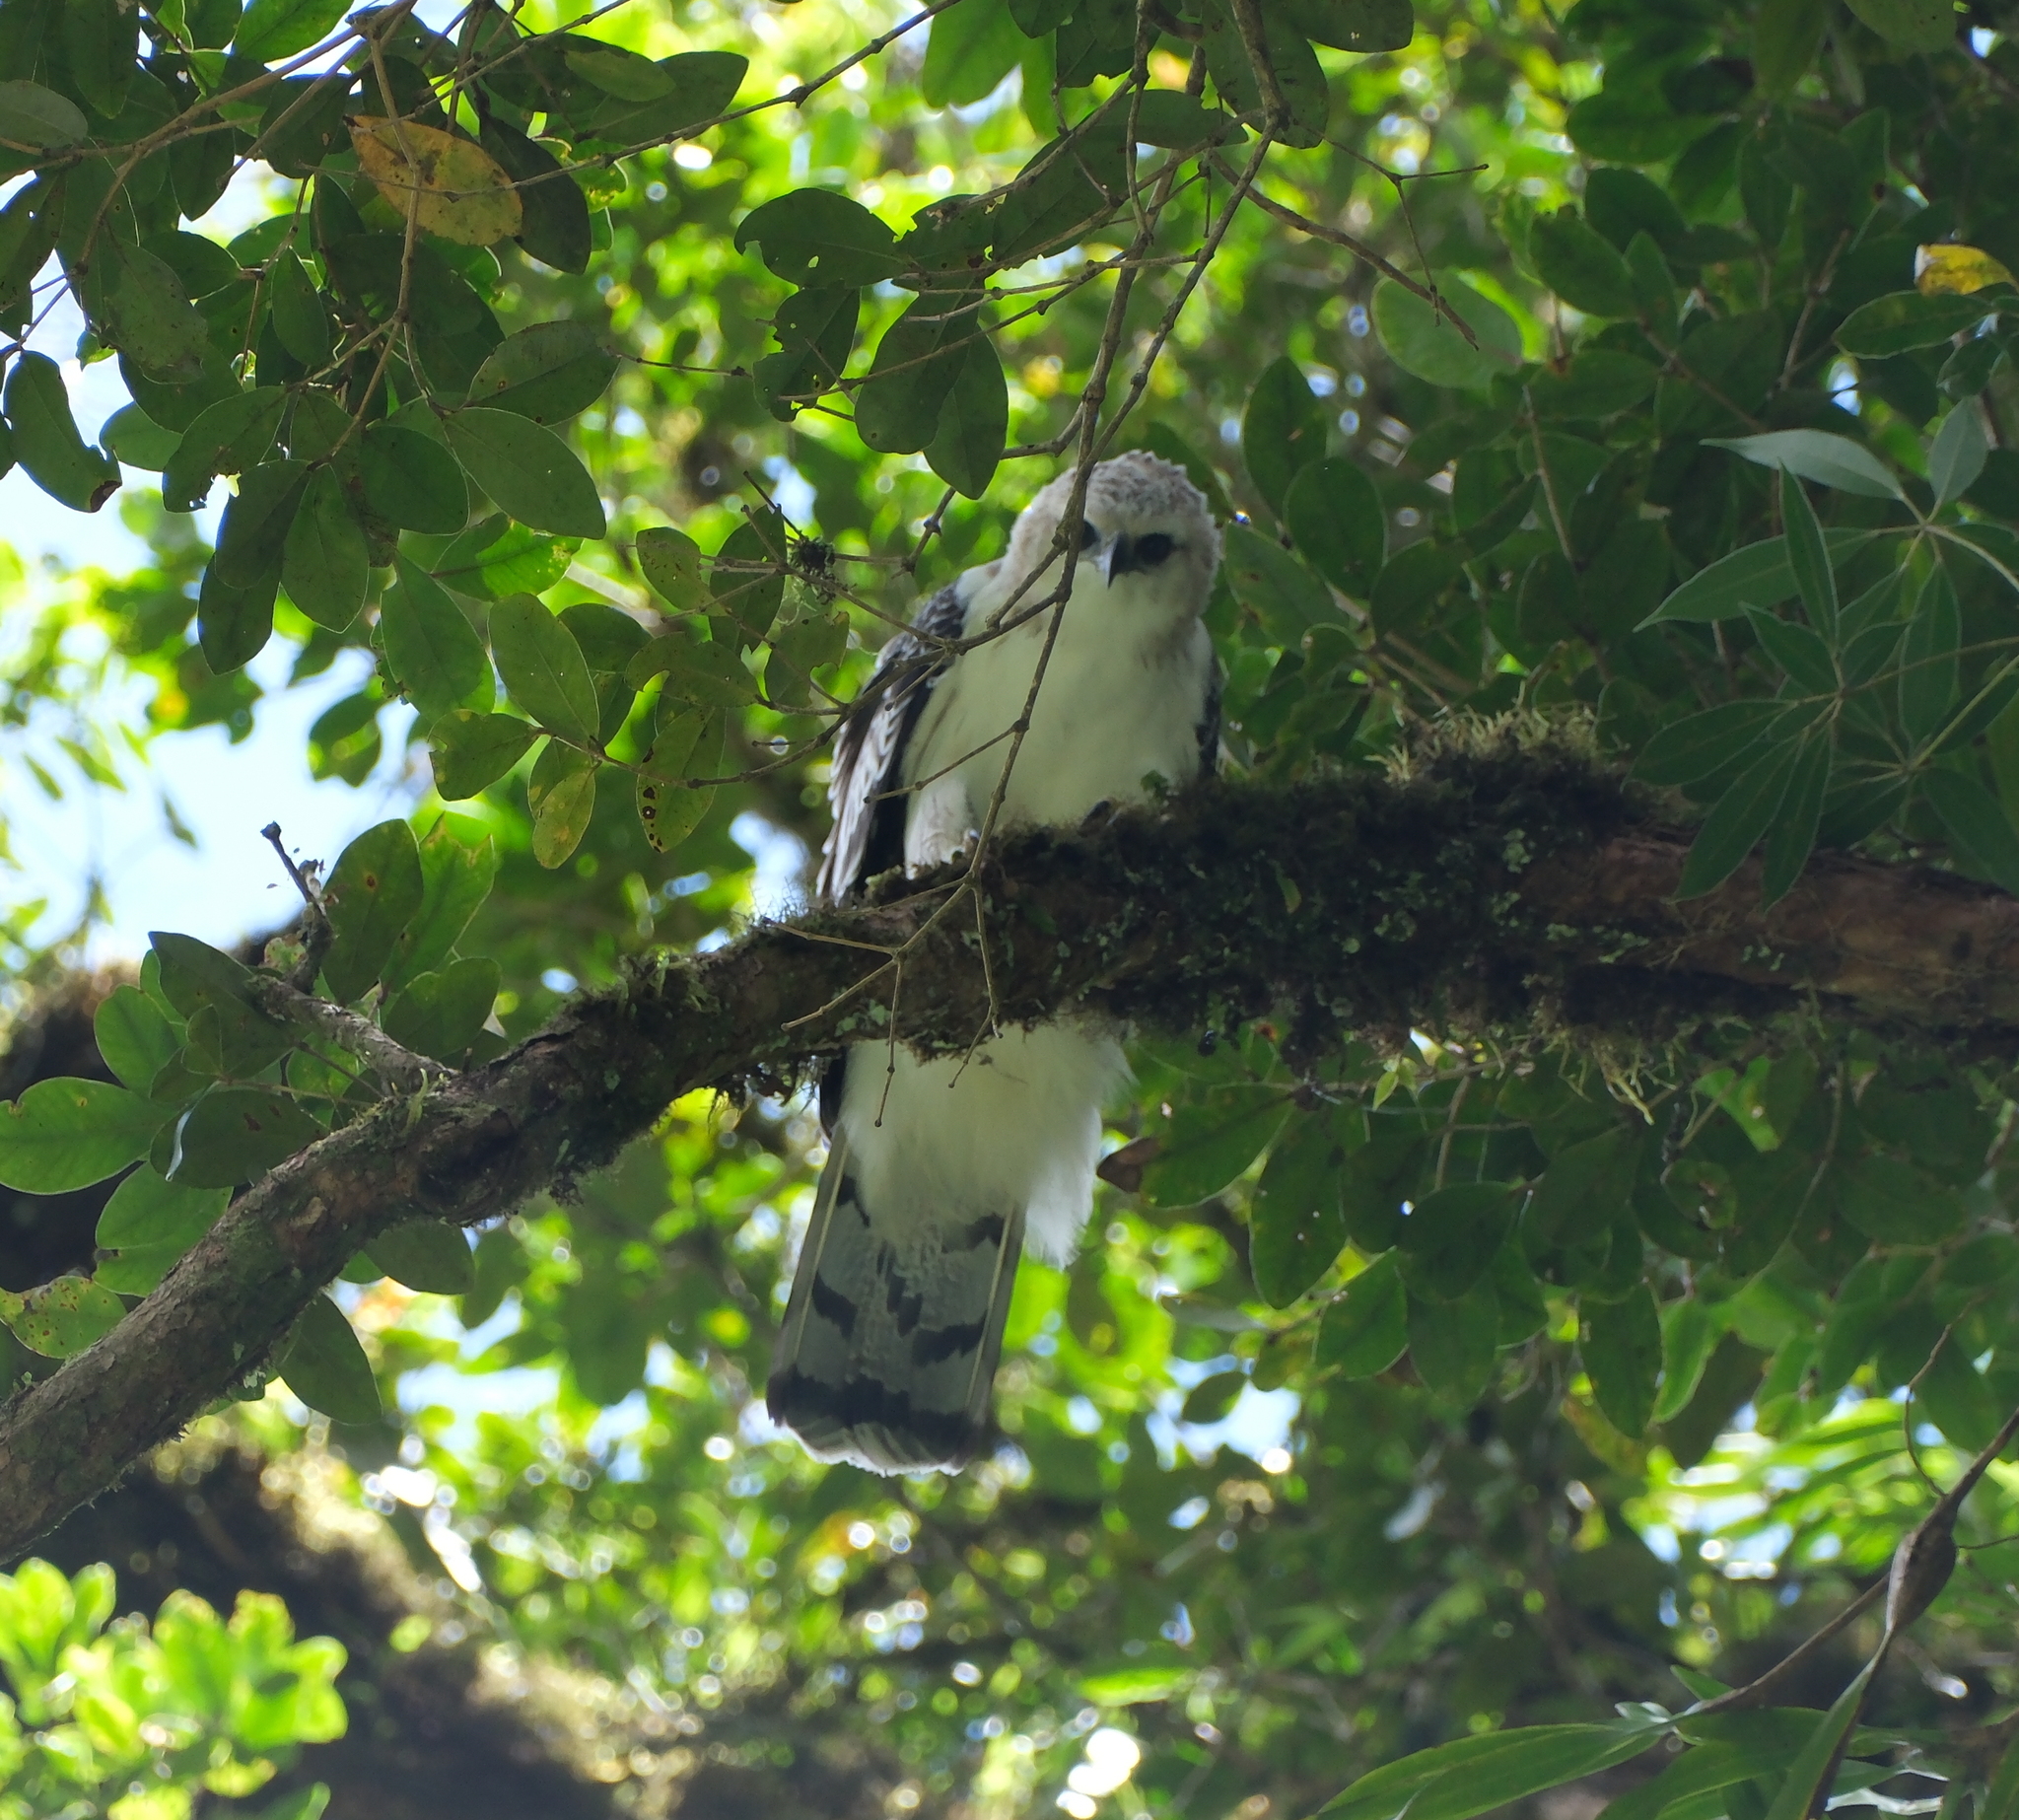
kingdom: Animalia
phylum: Chordata
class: Aves
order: Accipitriformes
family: Accipitridae
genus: Spizaetus
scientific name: Spizaetus isidori
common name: Black-and-chestnut eagle
